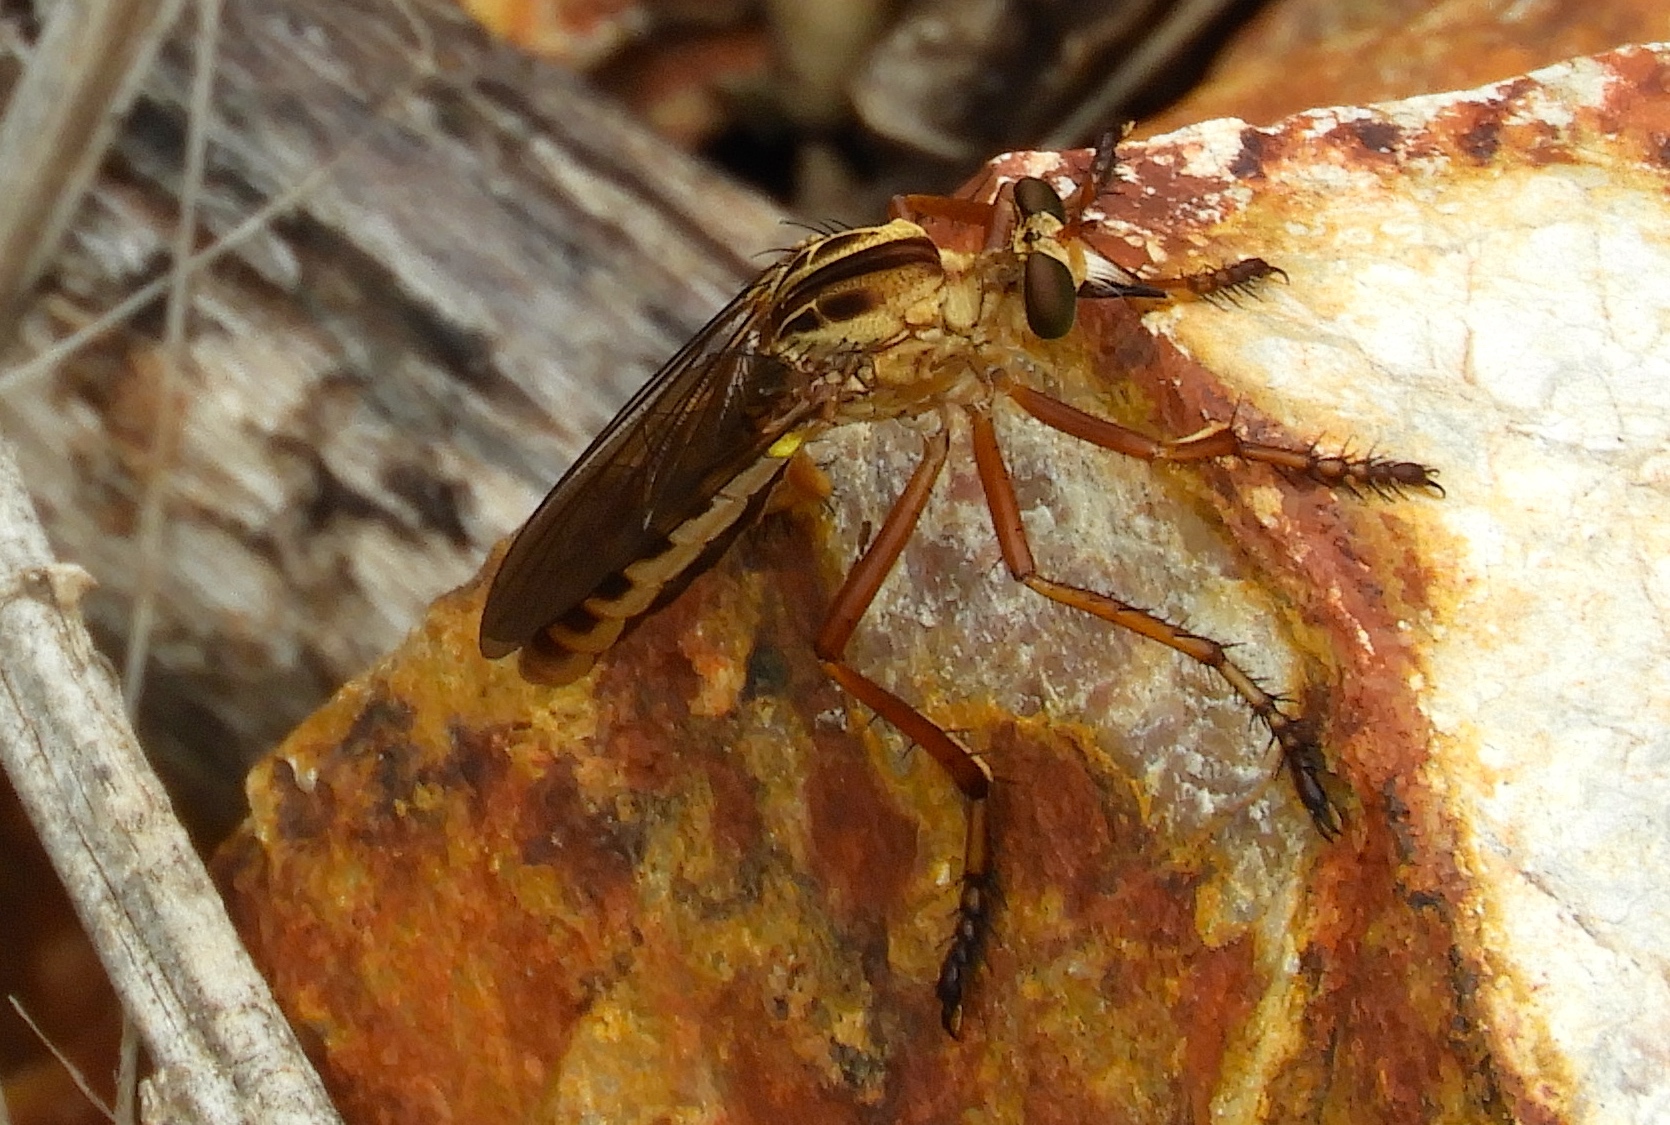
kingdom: Animalia
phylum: Arthropoda
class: Insecta
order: Diptera
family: Asilidae
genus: Diogmites
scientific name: Diogmites
